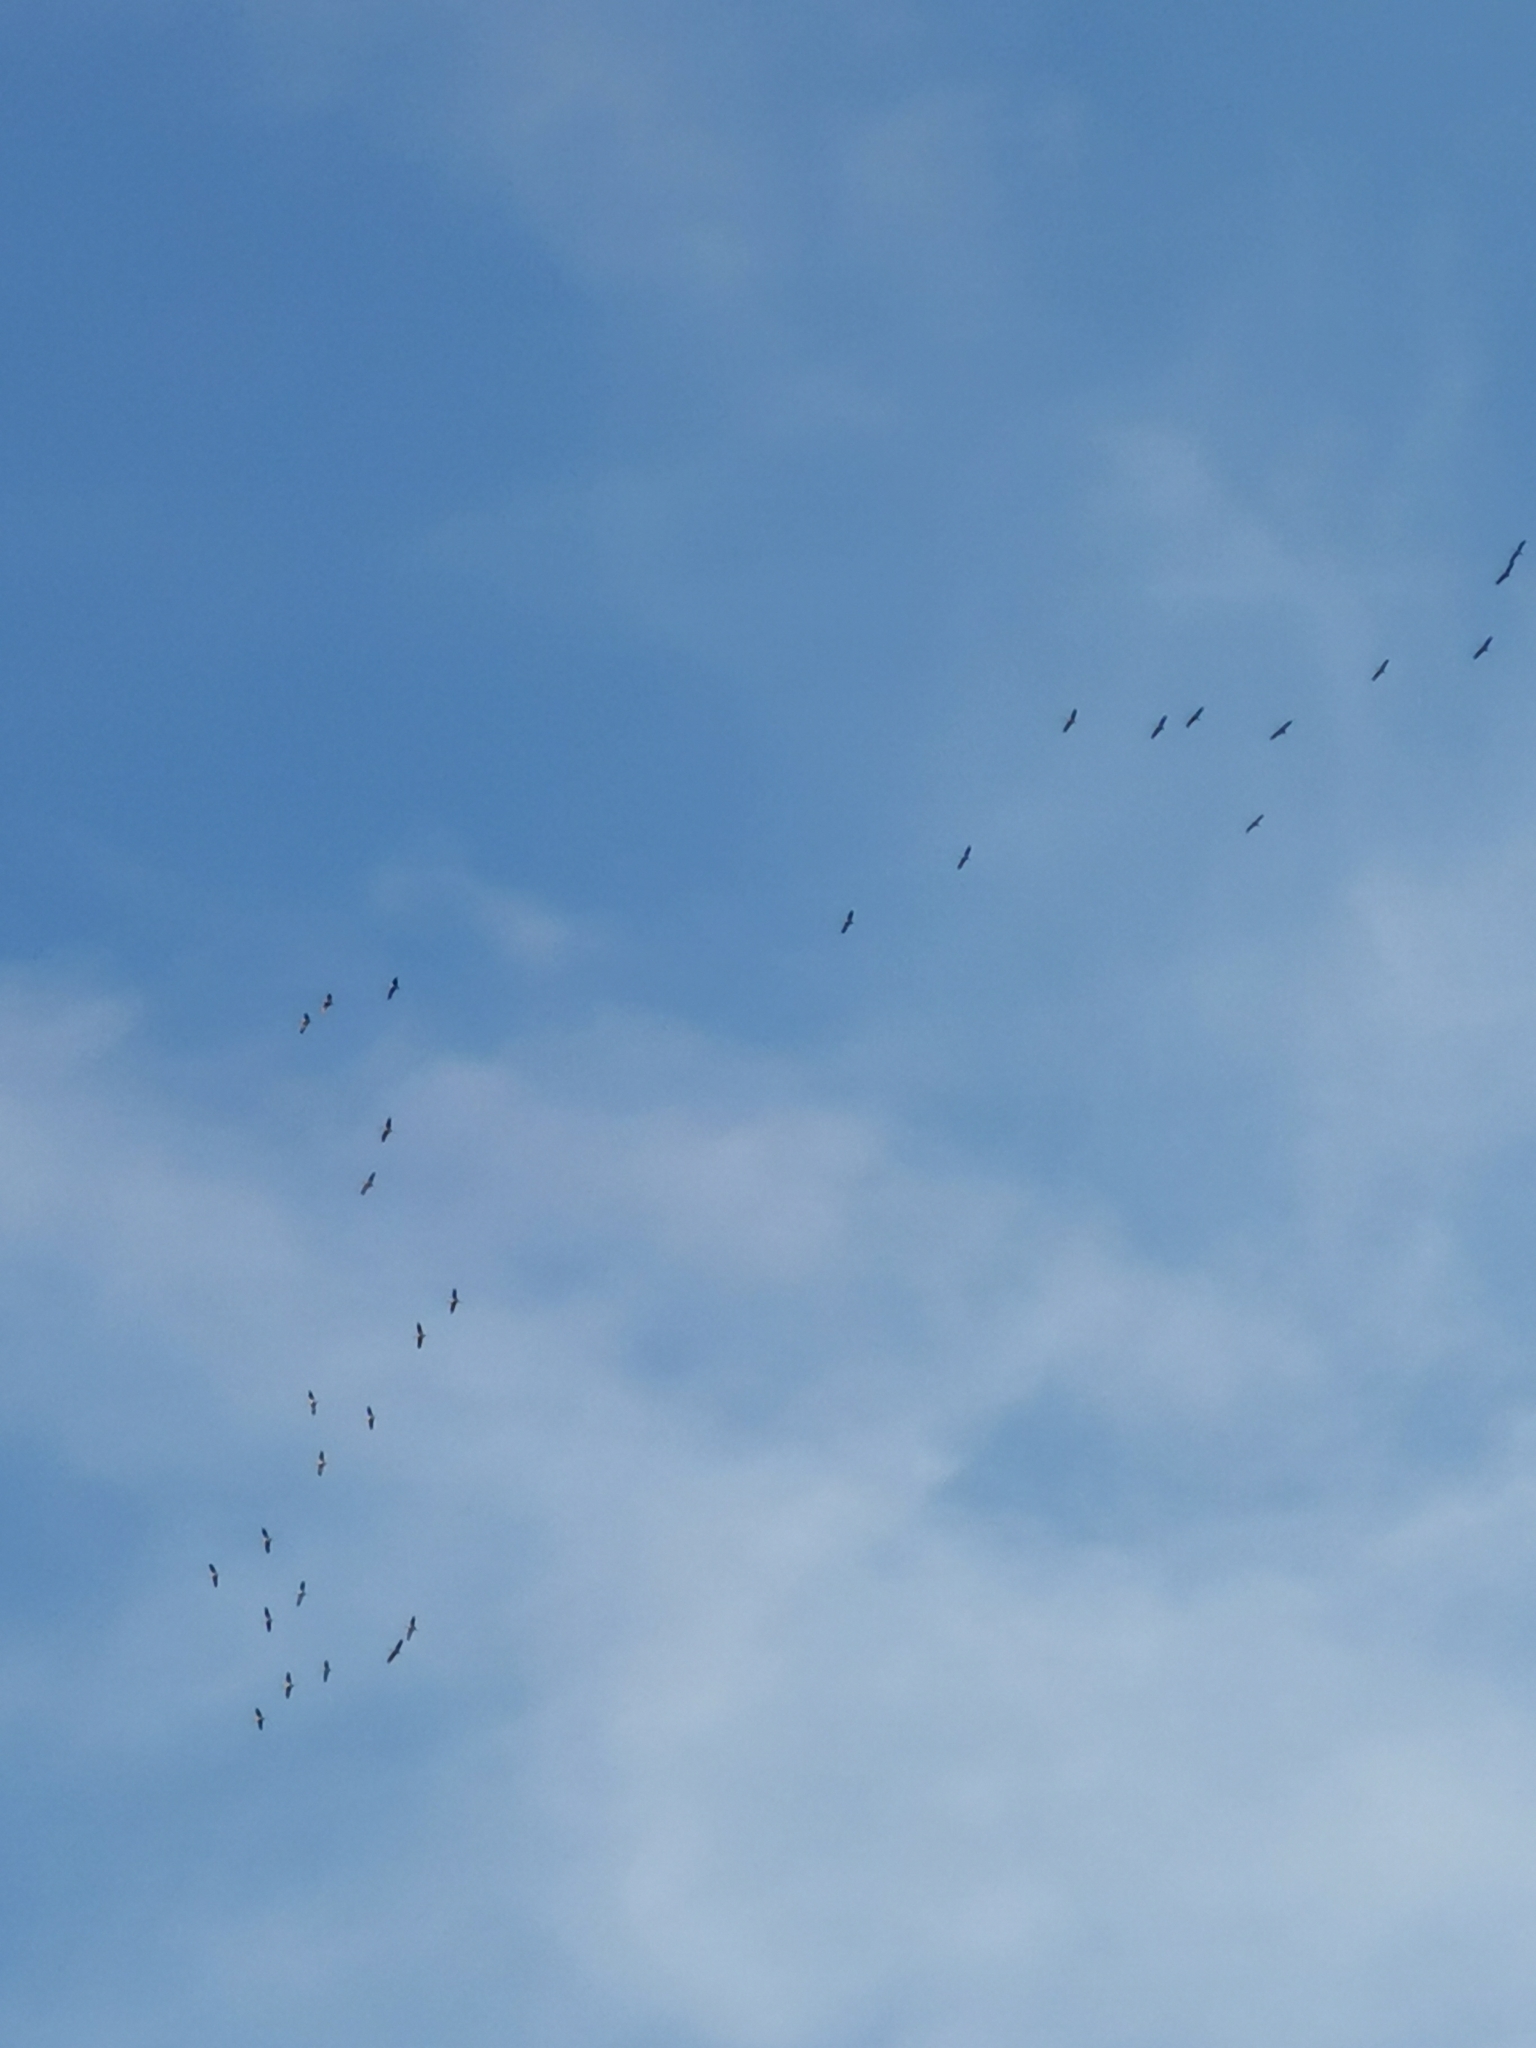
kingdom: Animalia
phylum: Chordata
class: Aves
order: Gruiformes
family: Gruidae
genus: Grus
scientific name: Grus grus
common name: Common crane
